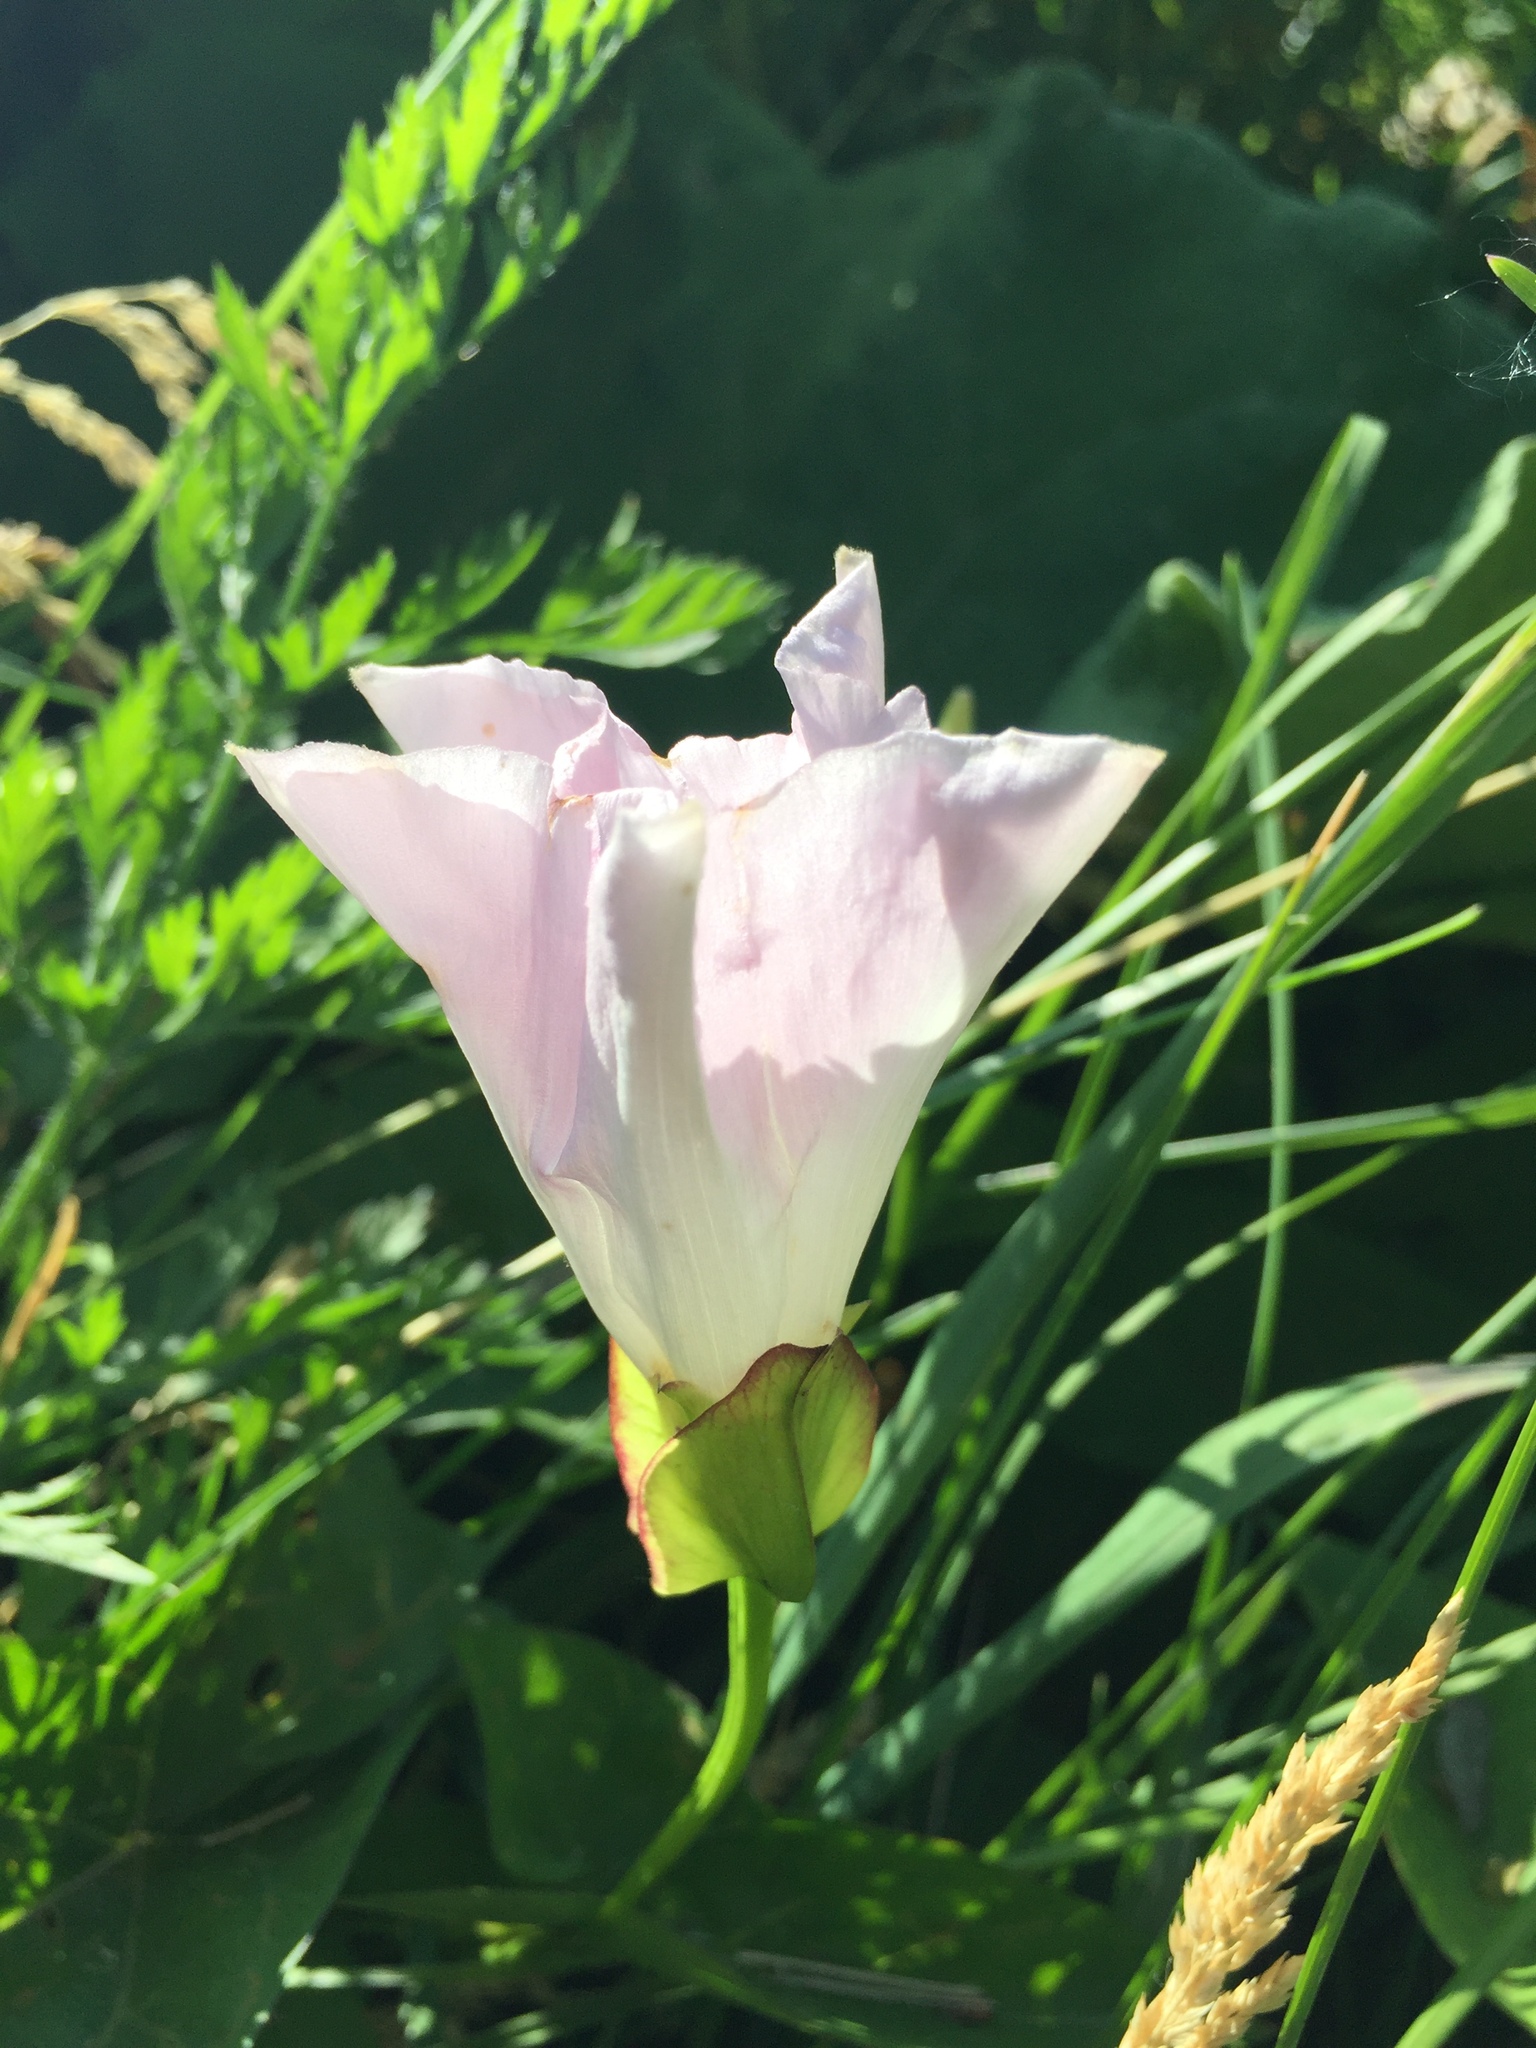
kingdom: Plantae
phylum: Tracheophyta
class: Magnoliopsida
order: Solanales
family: Convolvulaceae
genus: Calystegia
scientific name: Calystegia sepium
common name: Hedge bindweed
